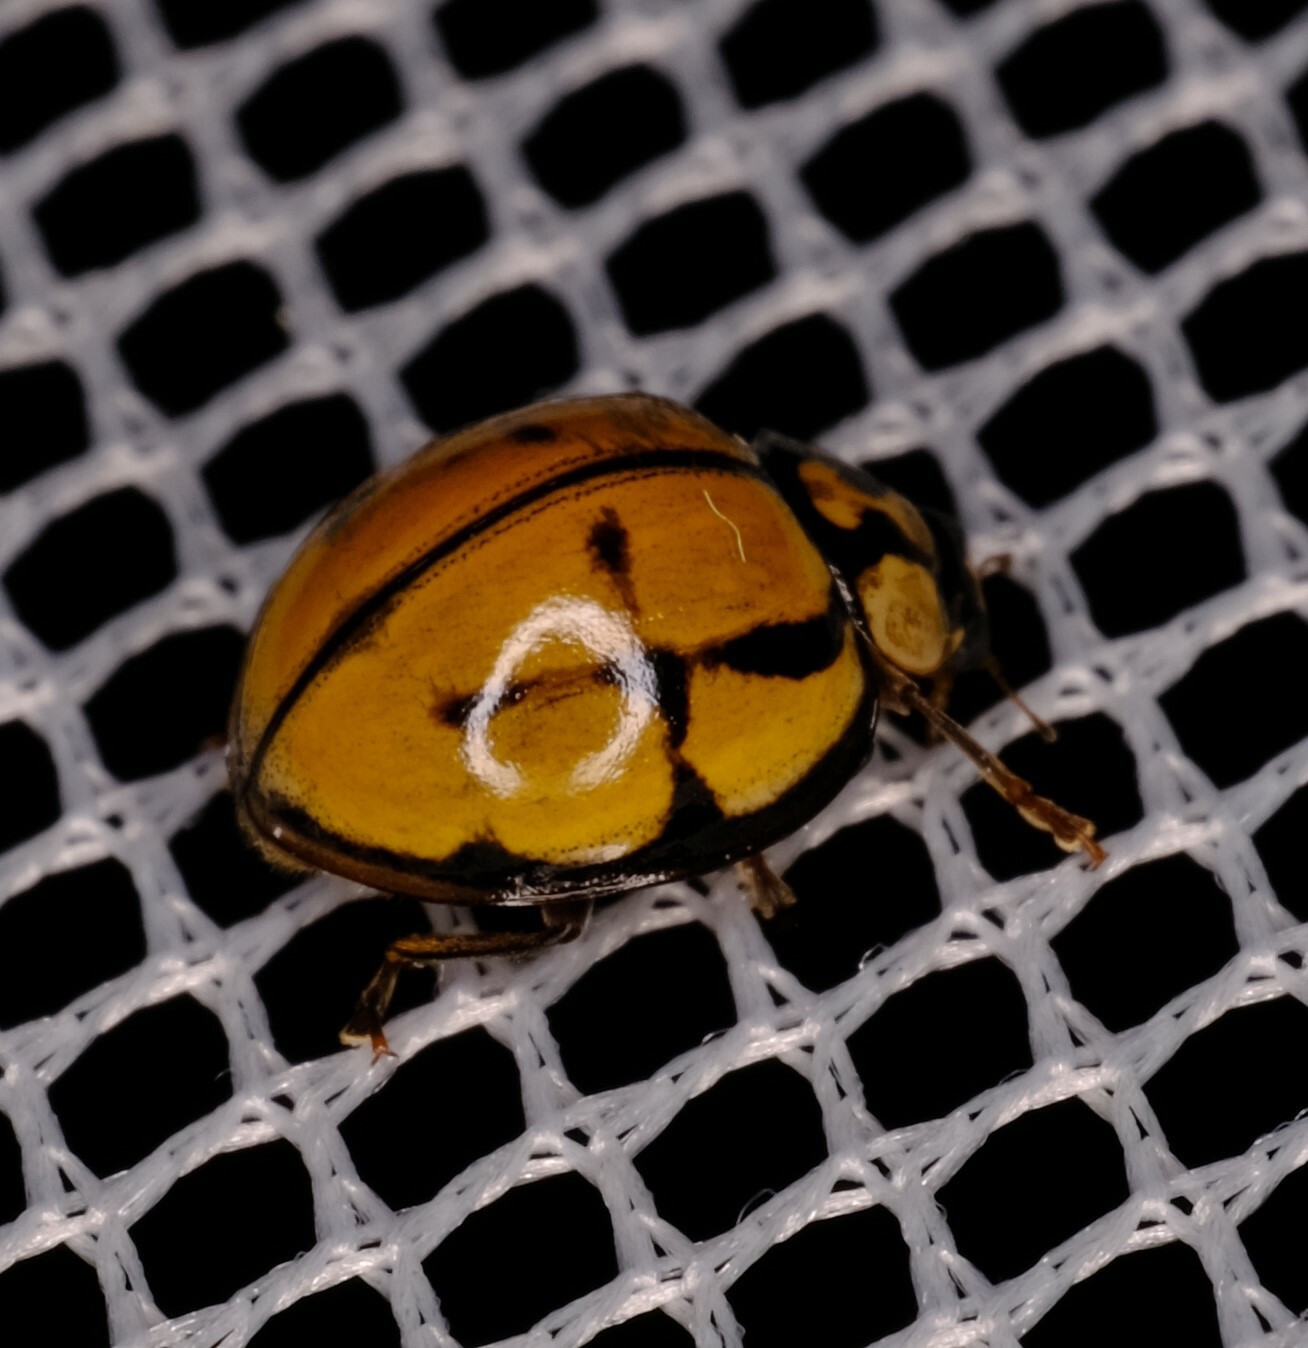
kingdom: Animalia
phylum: Arthropoda
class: Insecta
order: Coleoptera
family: Coccinellidae
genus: Harmonia
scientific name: Harmonia
